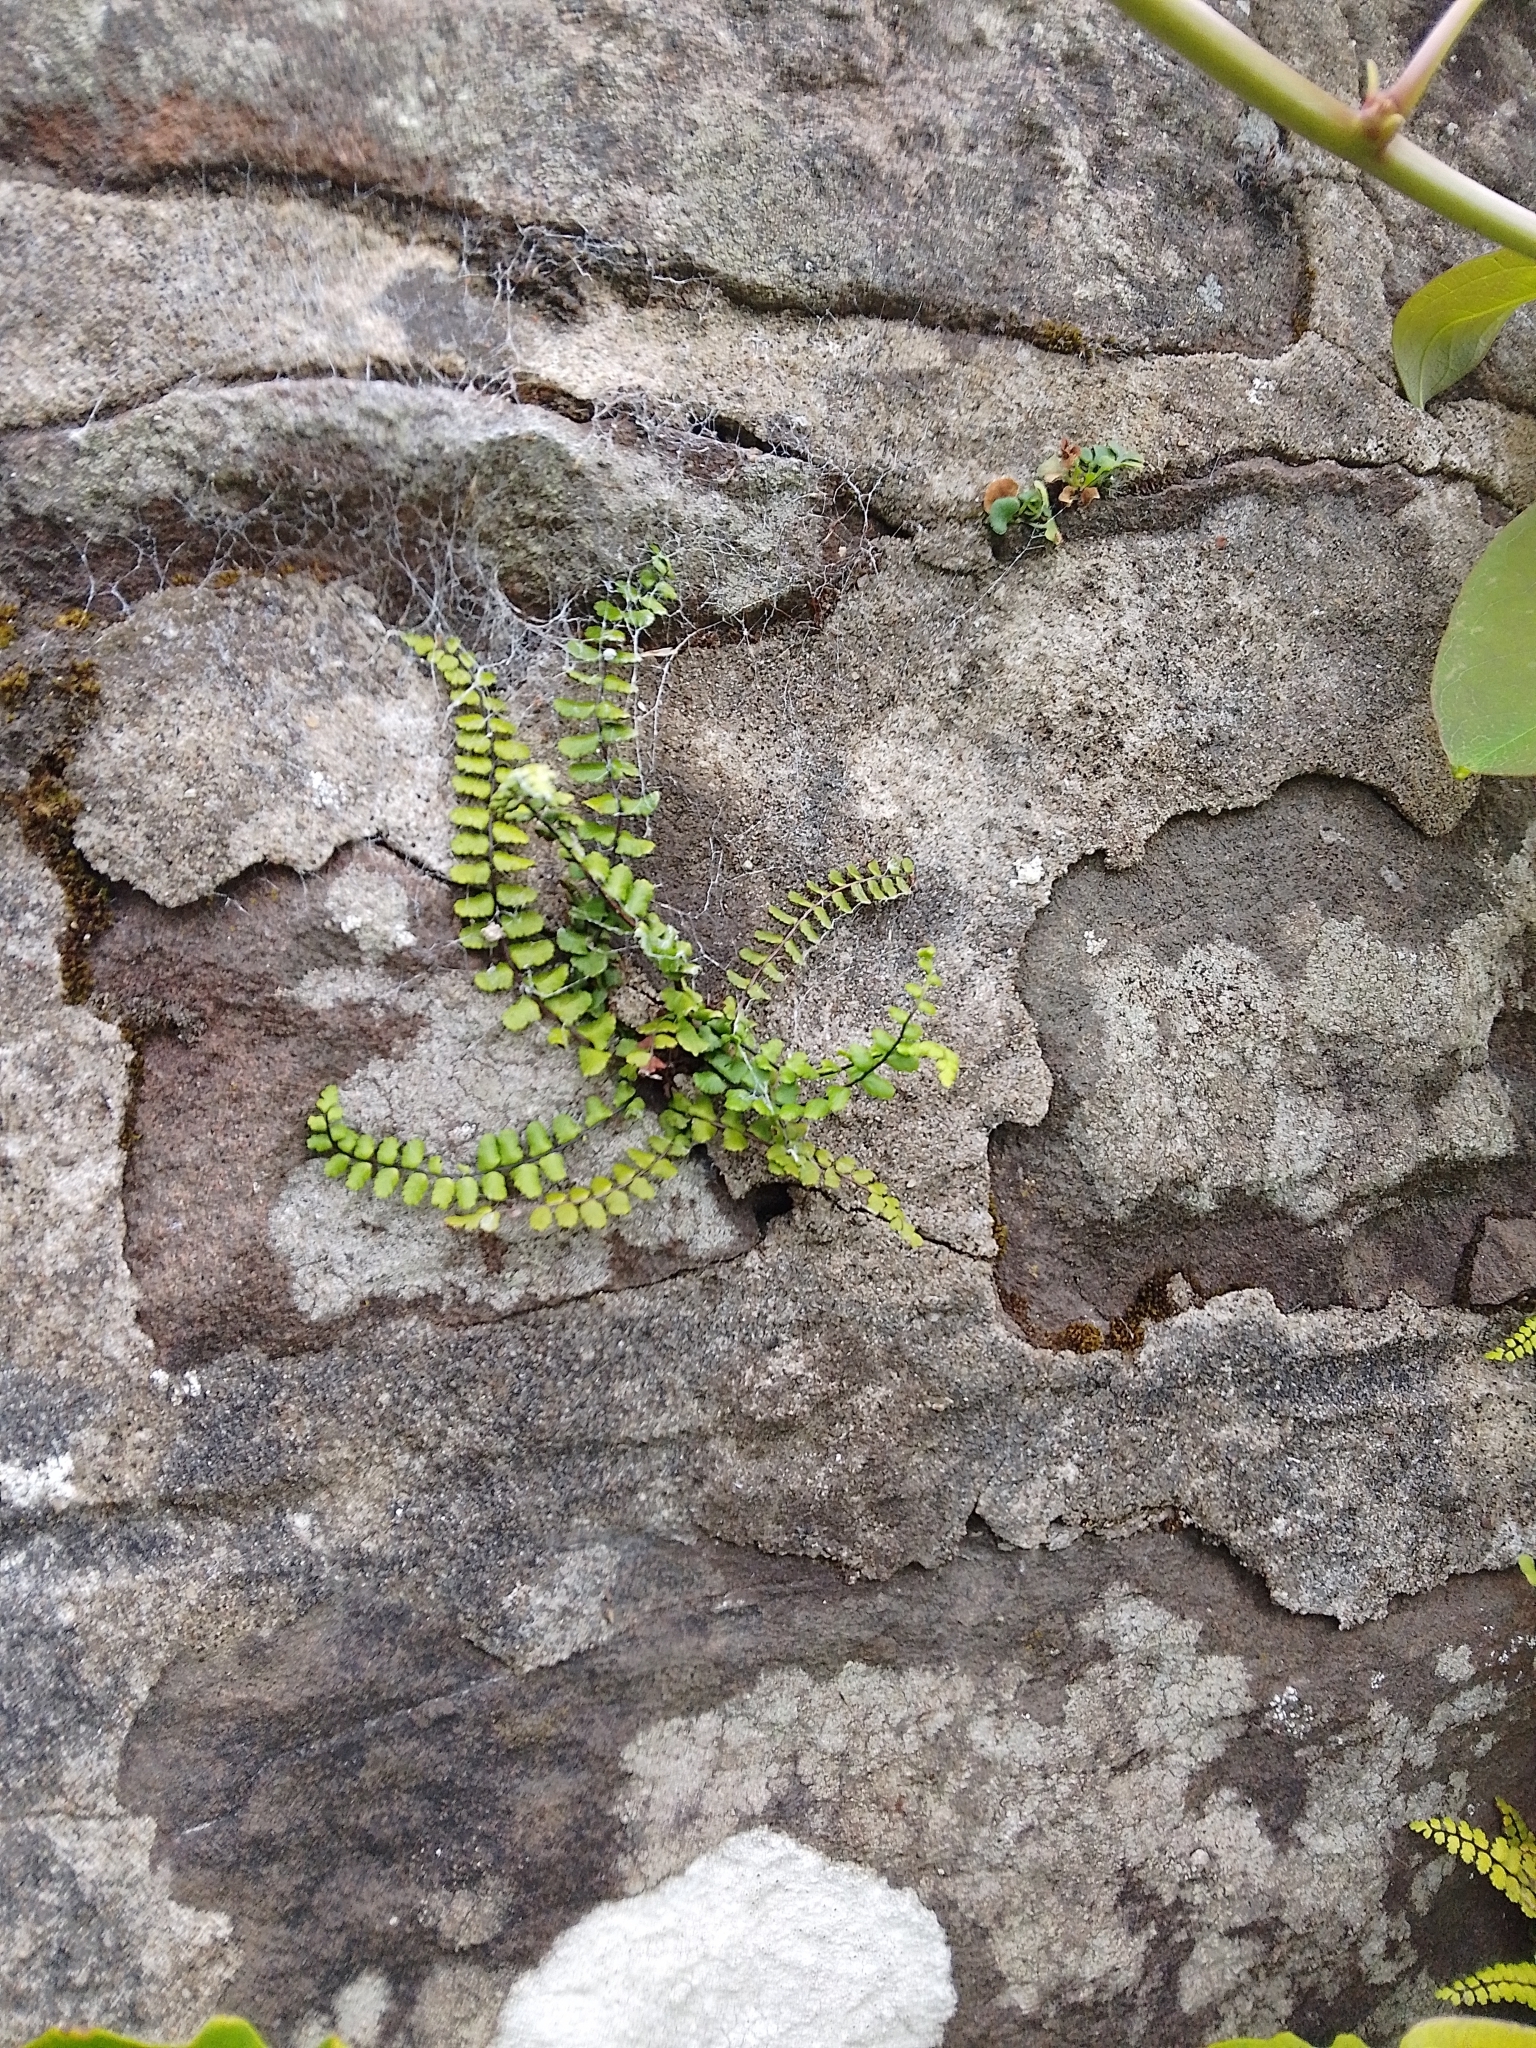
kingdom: Plantae
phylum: Tracheophyta
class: Polypodiopsida
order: Polypodiales
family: Aspleniaceae
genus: Asplenium
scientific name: Asplenium trichomanes
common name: Maidenhair spleenwort
